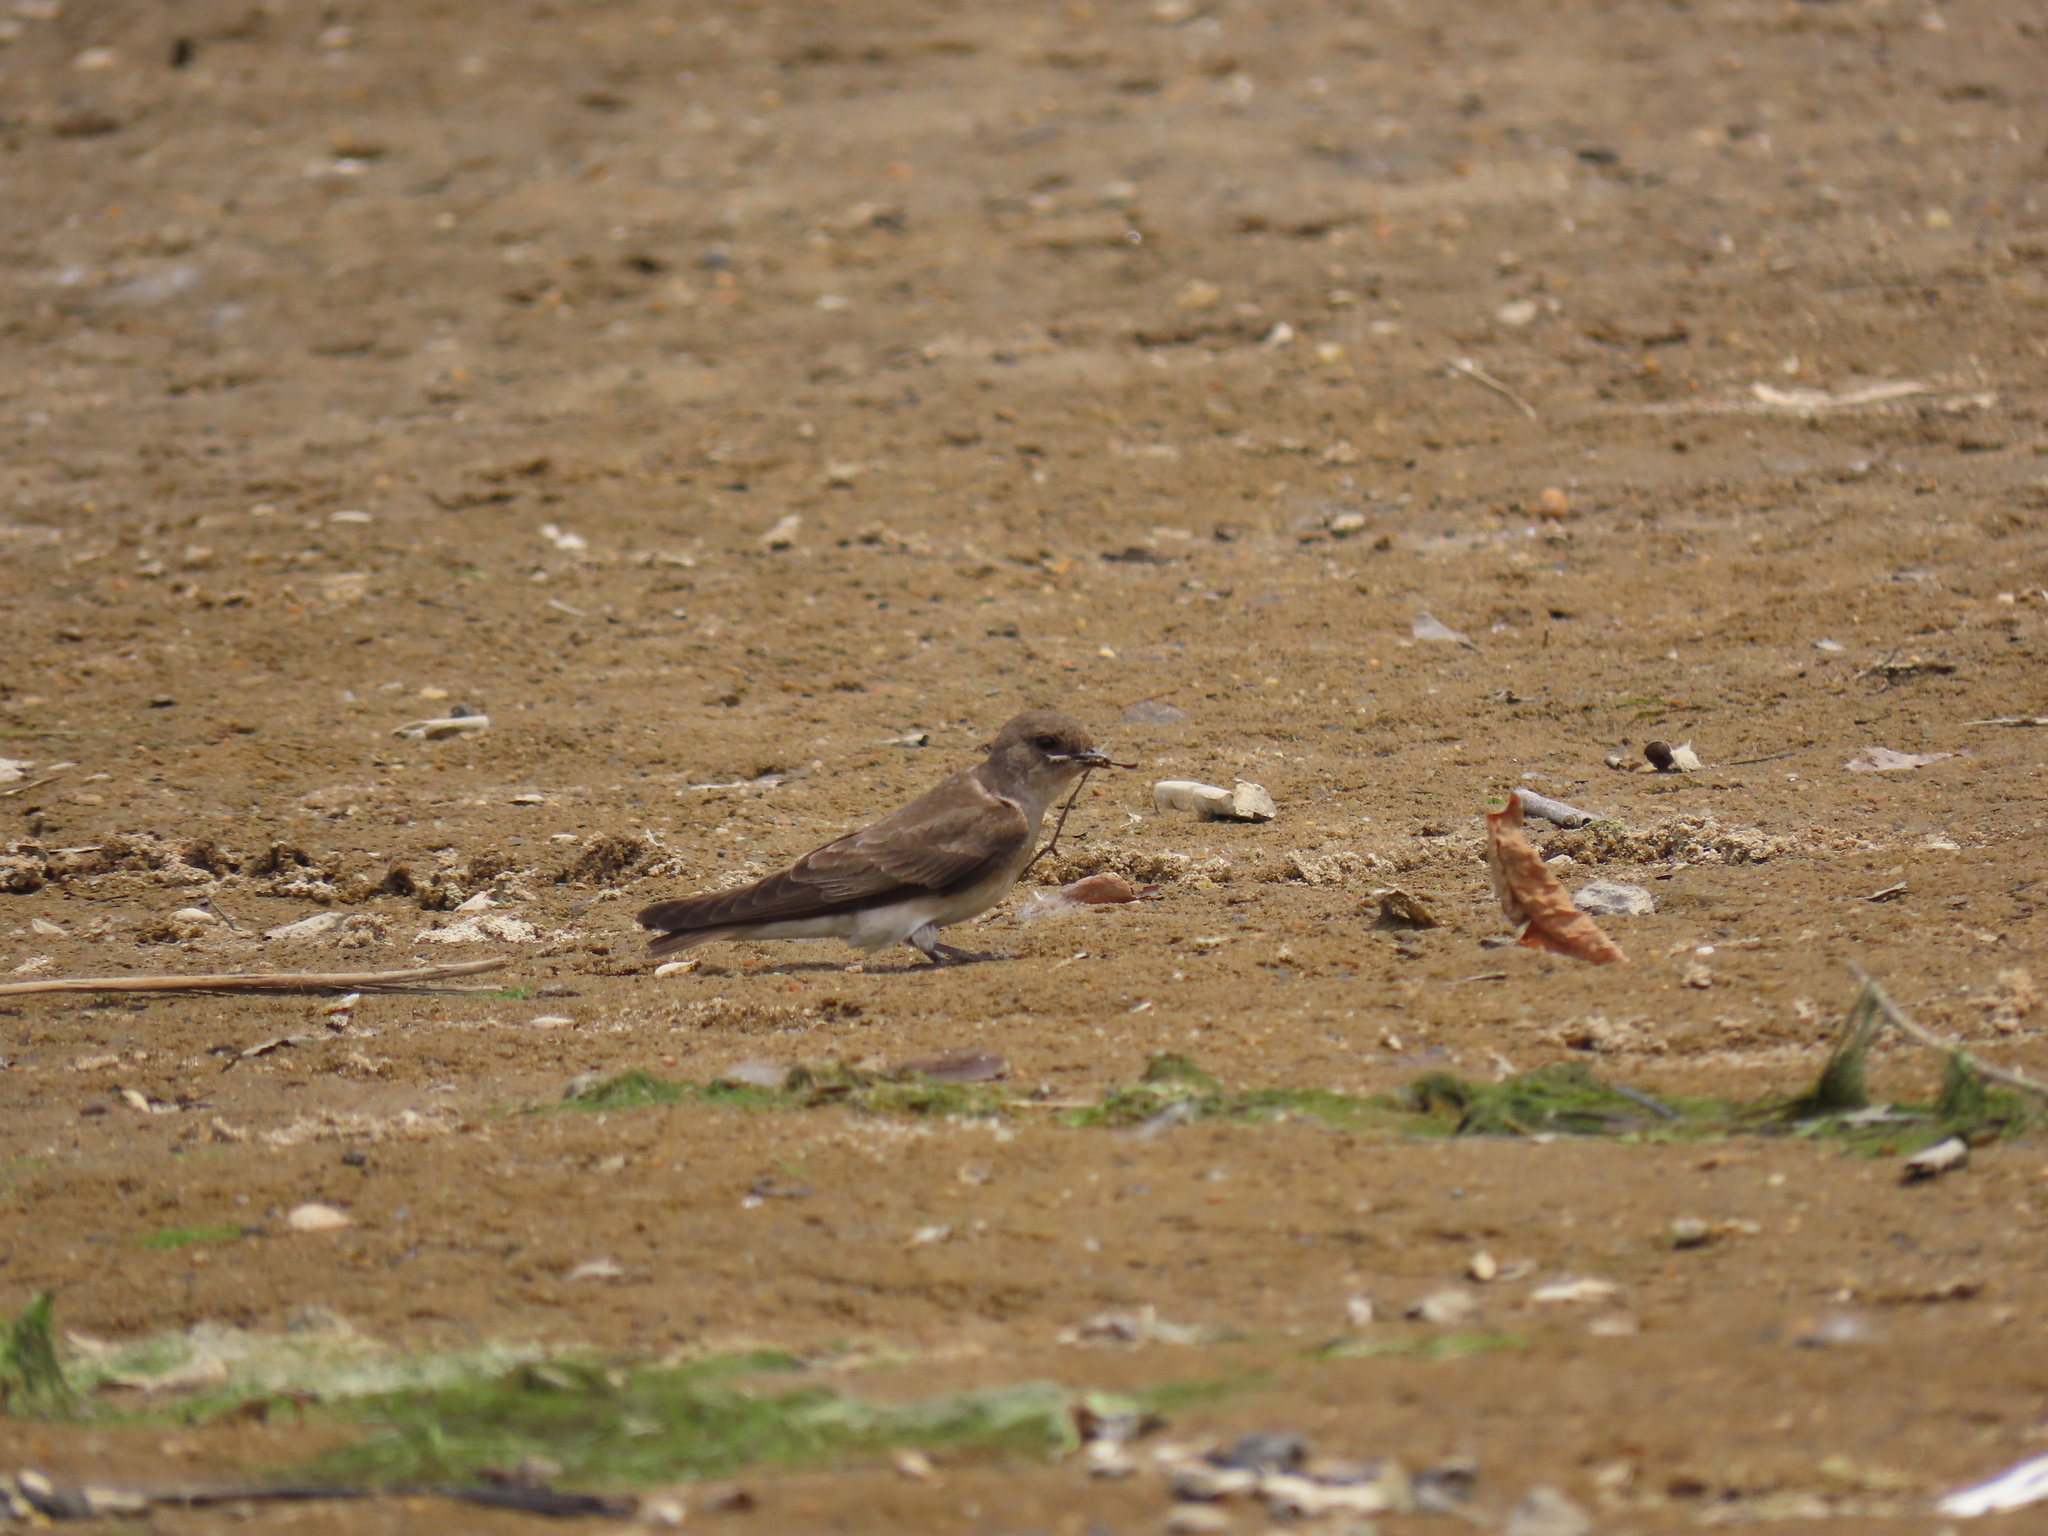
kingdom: Animalia
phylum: Chordata
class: Aves
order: Passeriformes
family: Hirundinidae
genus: Stelgidopteryx
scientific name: Stelgidopteryx serripennis
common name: Northern rough-winged swallow
